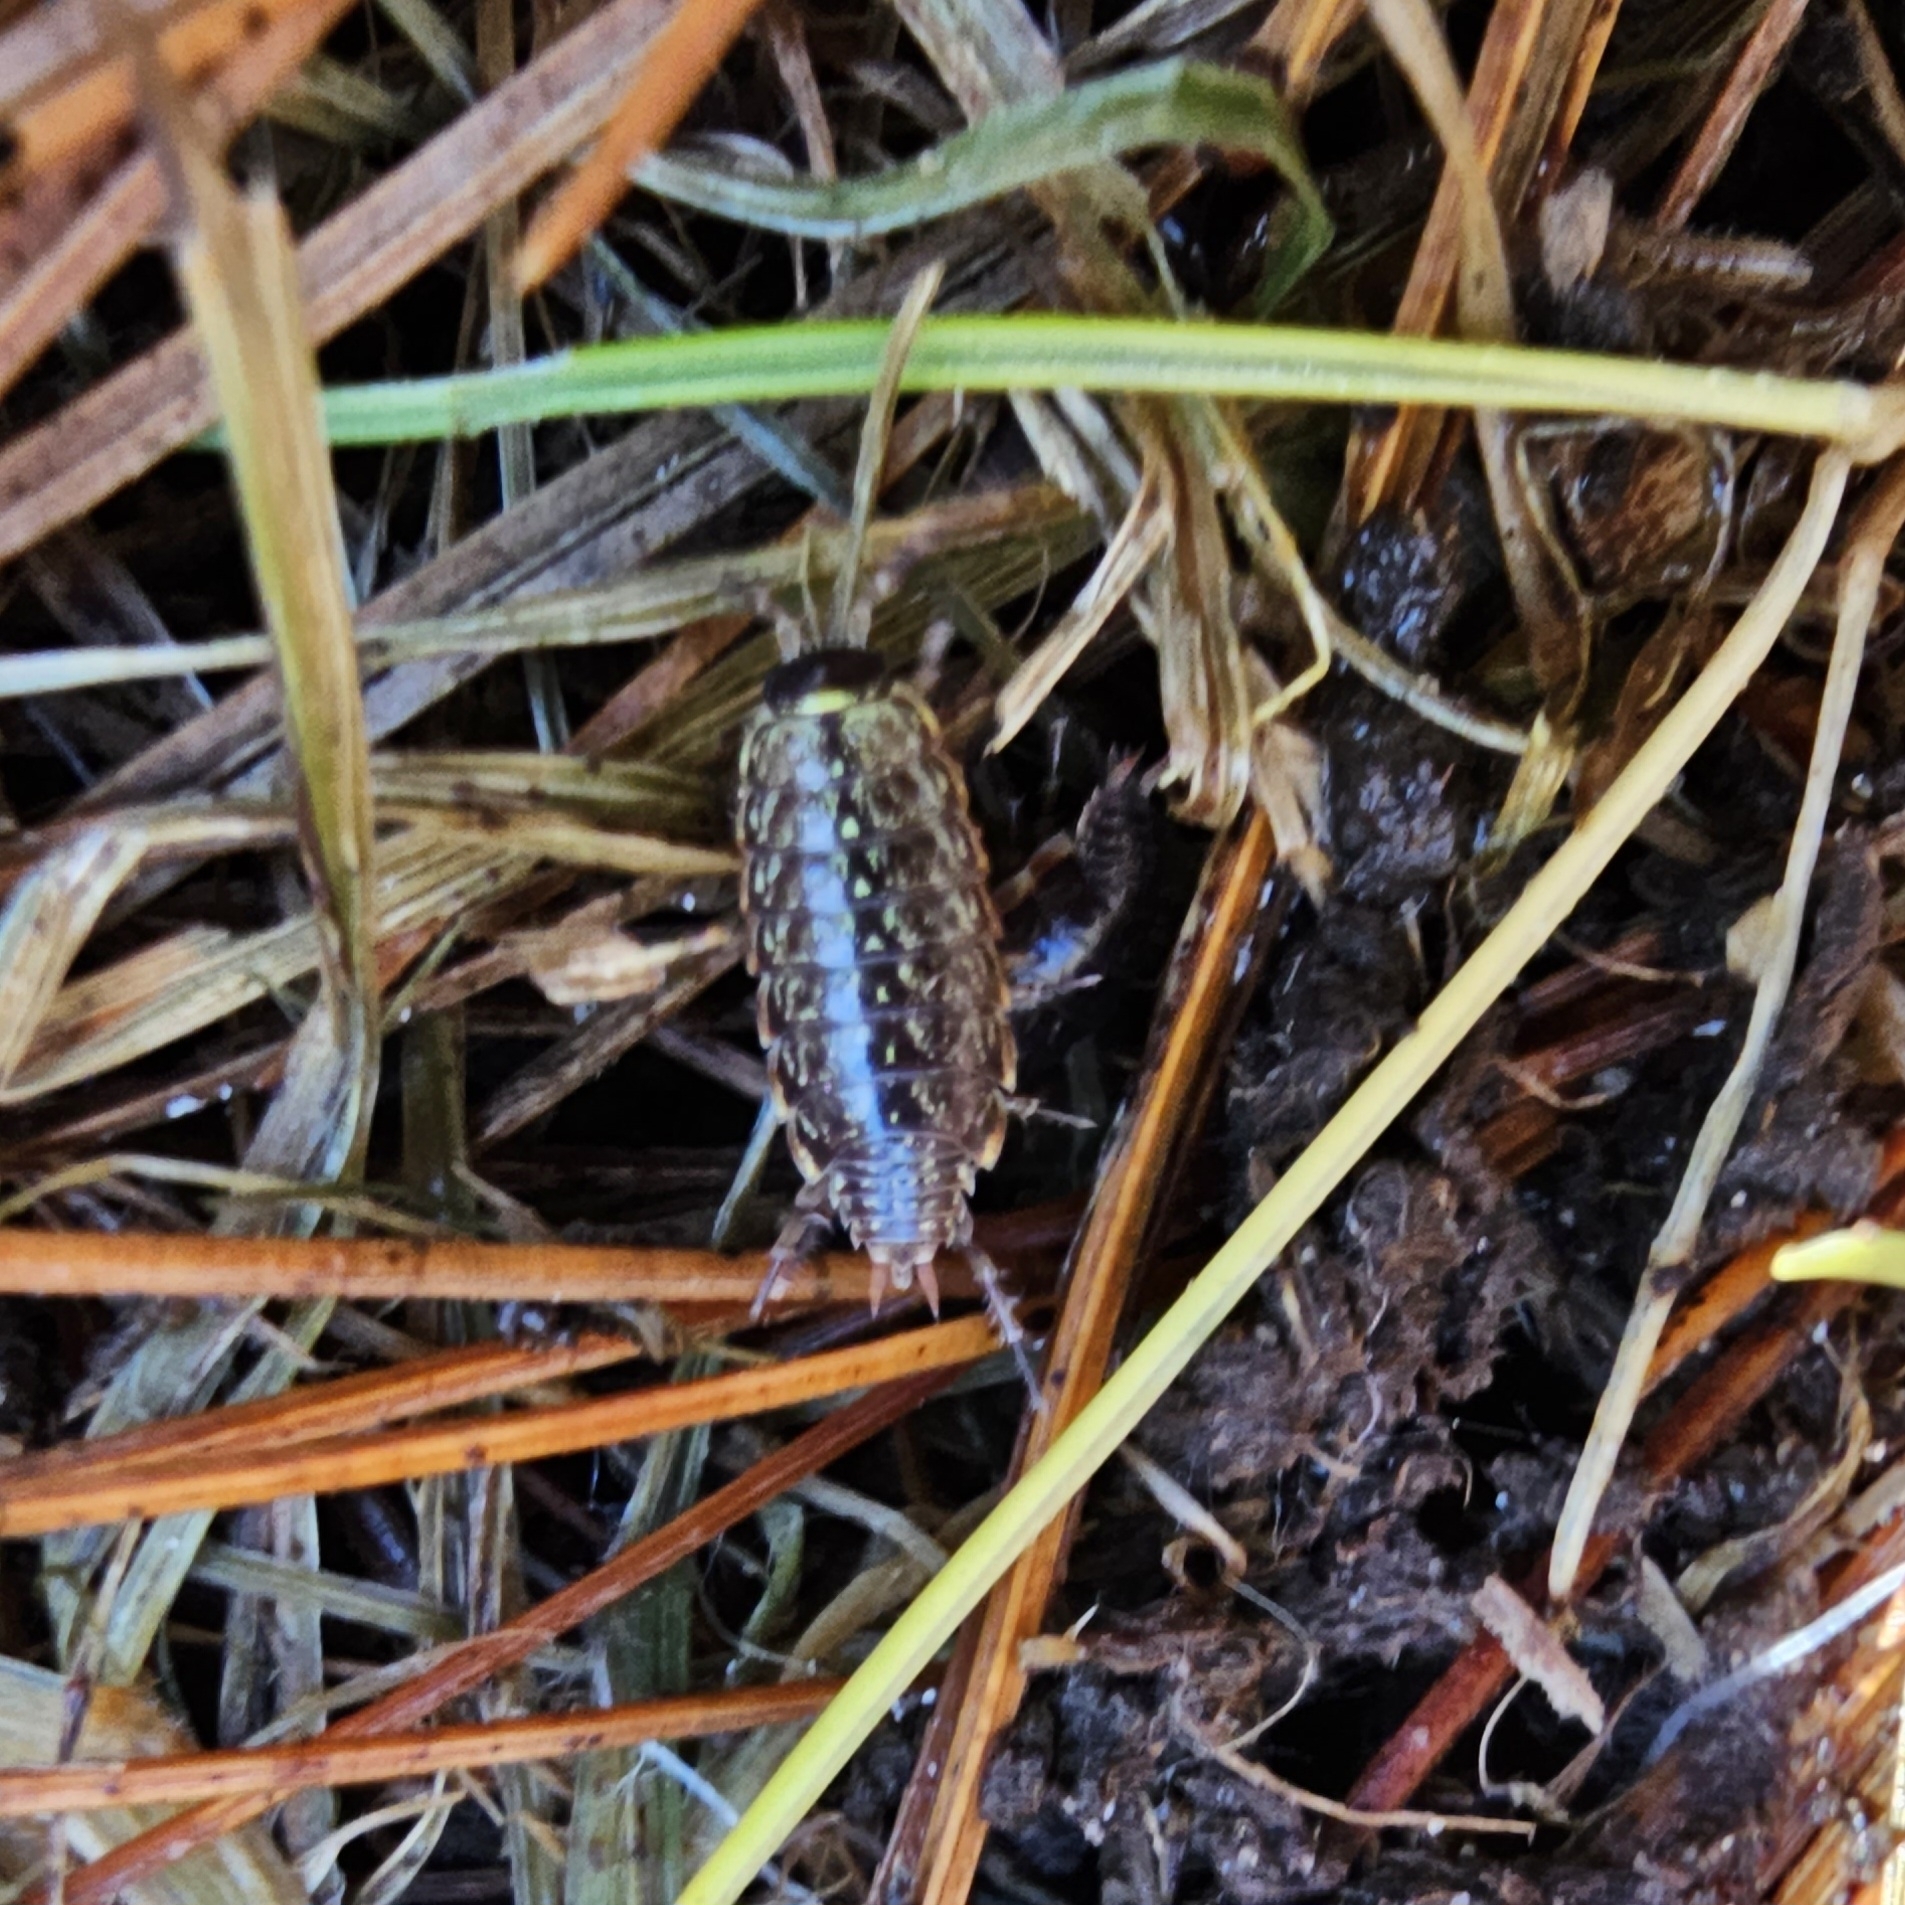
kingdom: Animalia
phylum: Arthropoda
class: Malacostraca
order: Isopoda
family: Philosciidae
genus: Philoscia
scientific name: Philoscia muscorum
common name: Common striped woodlouse
